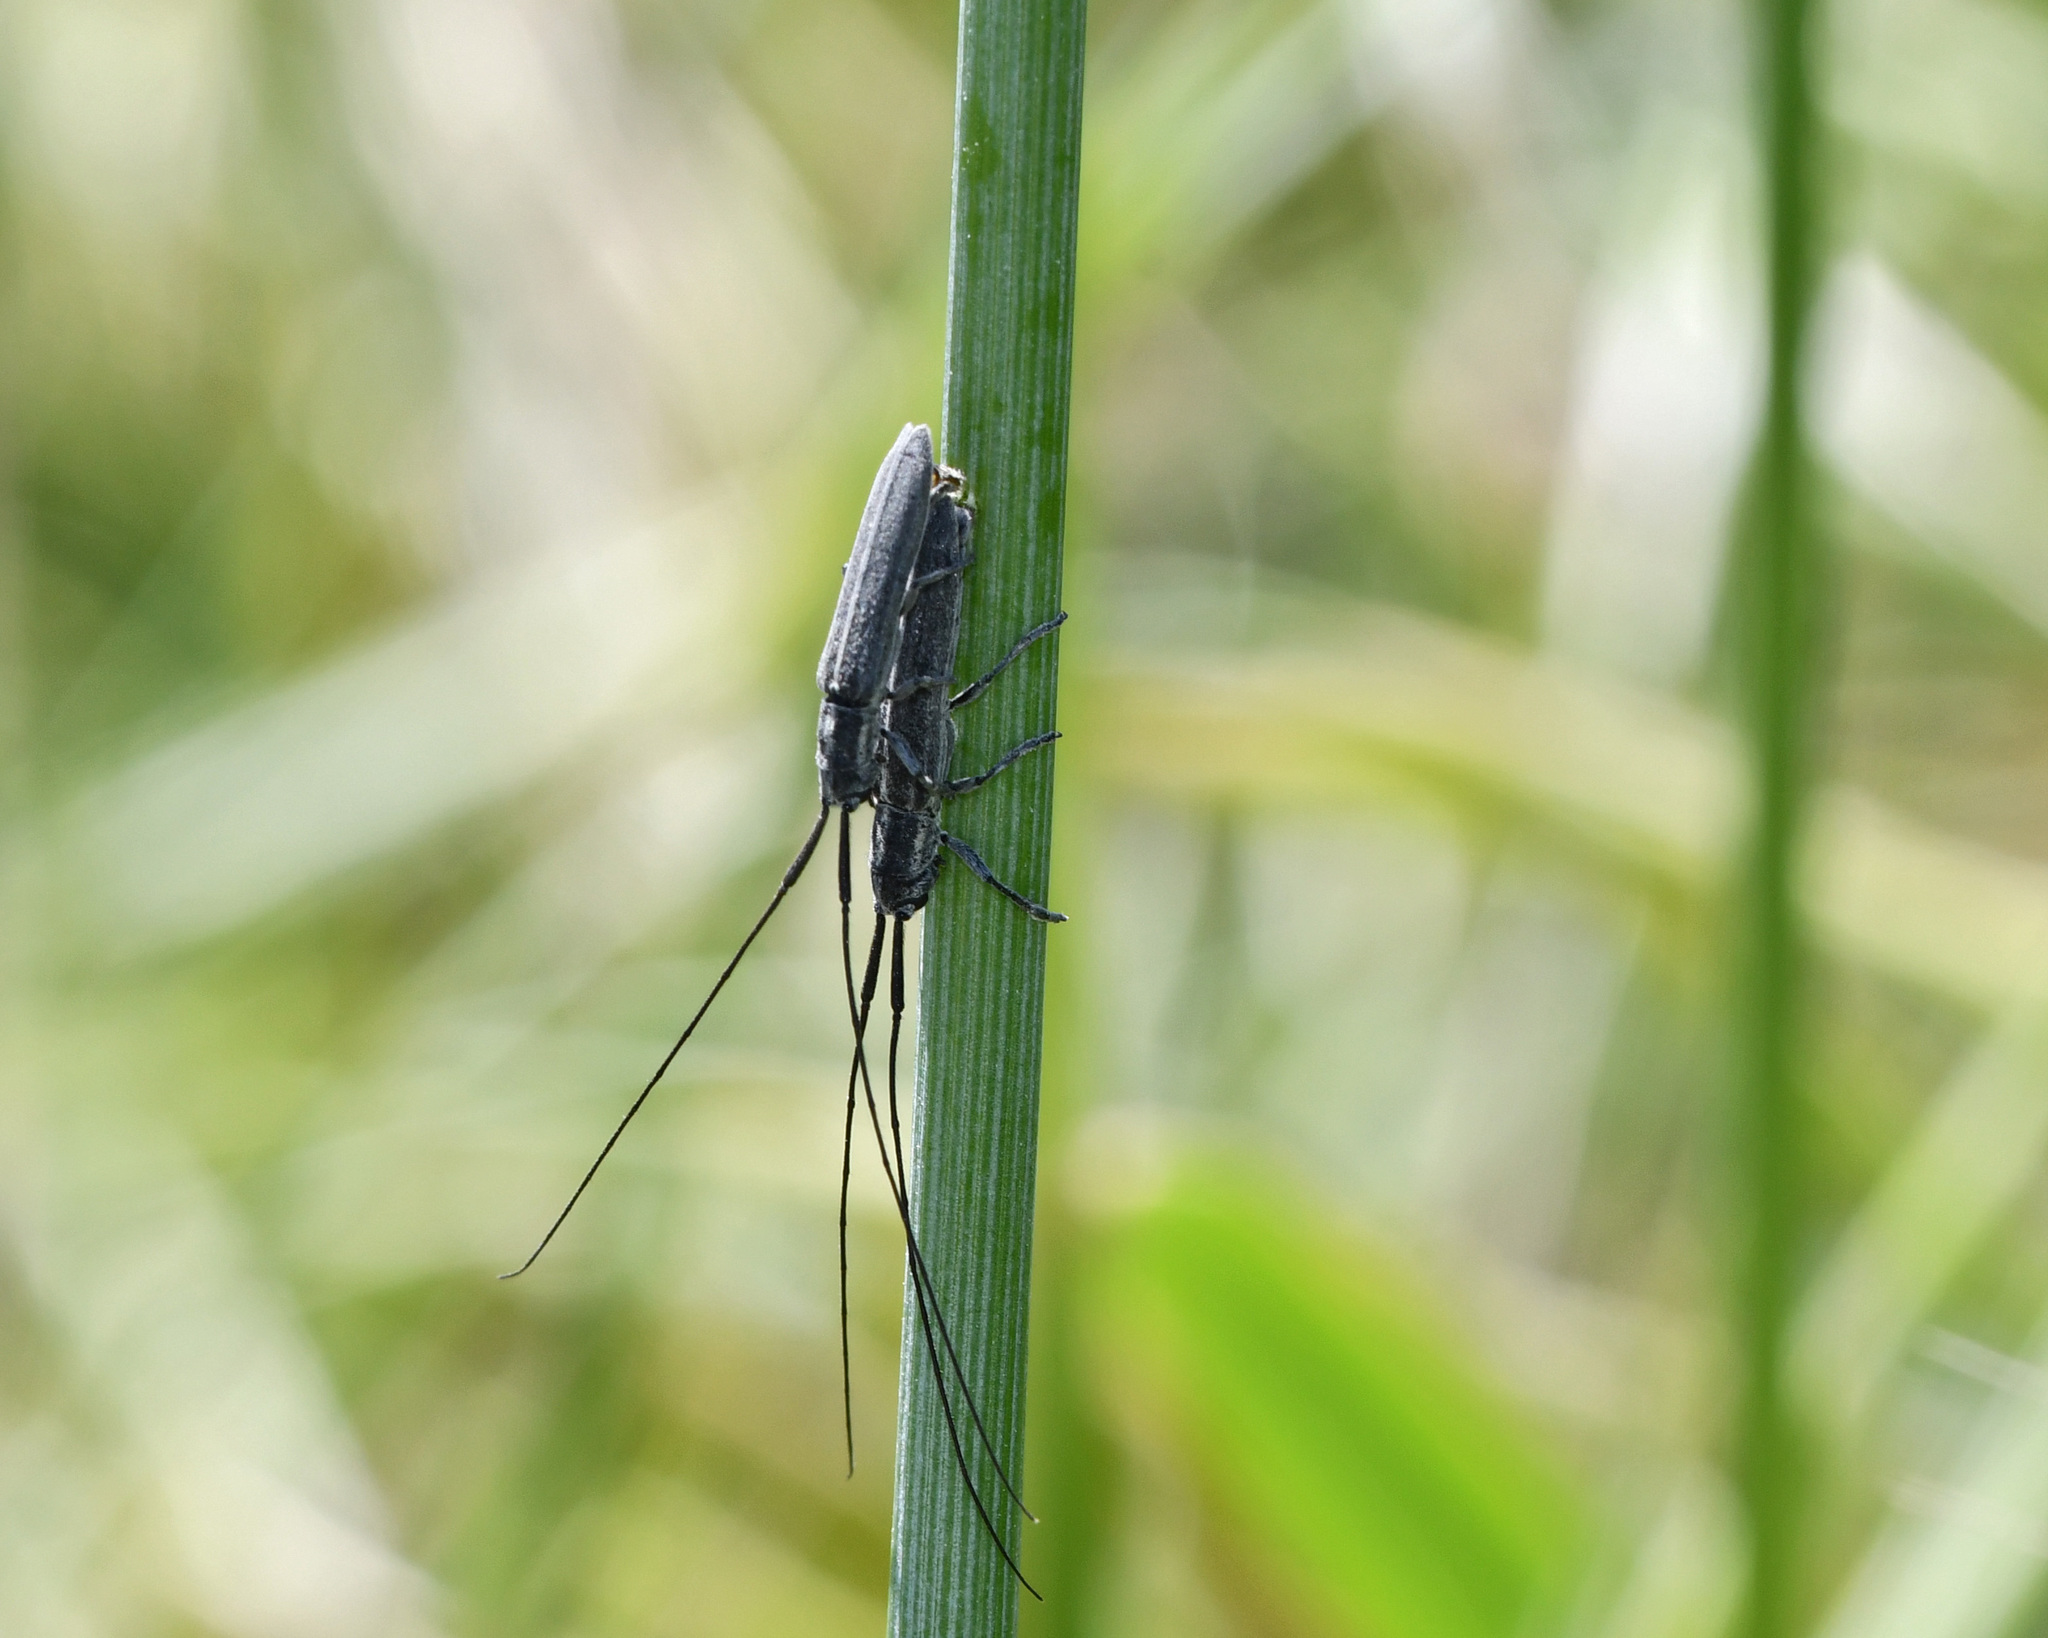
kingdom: Animalia
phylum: Arthropoda
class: Insecta
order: Coleoptera
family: Cerambycidae
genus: Calamobius
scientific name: Calamobius filum
